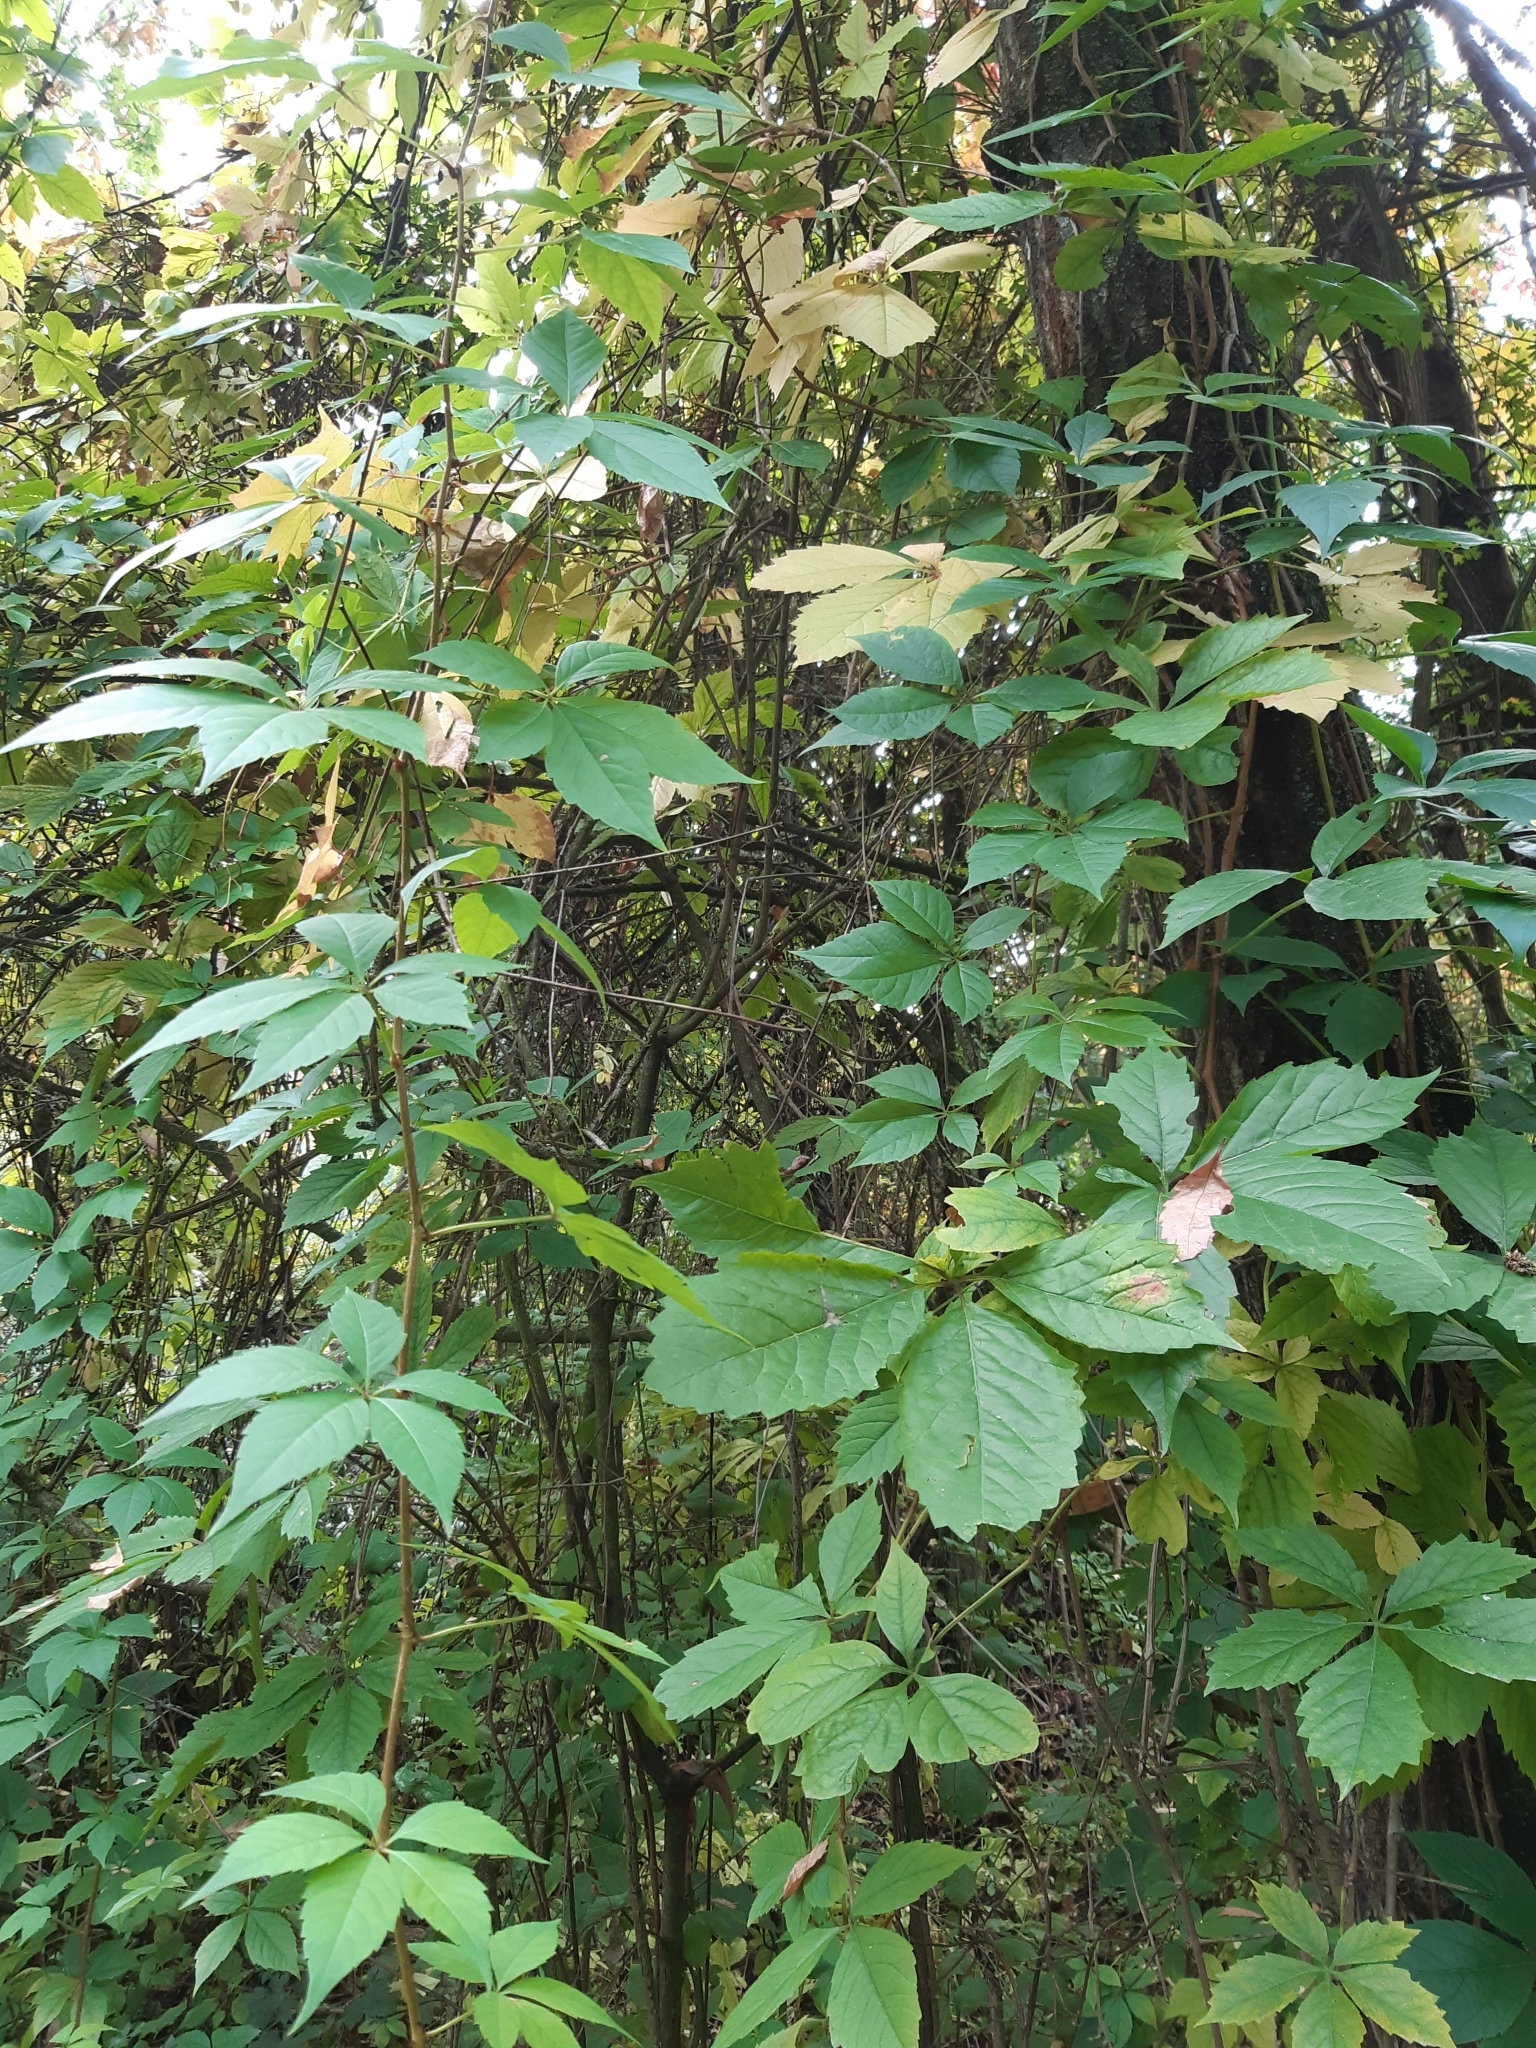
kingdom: Plantae
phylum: Tracheophyta
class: Magnoliopsida
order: Vitales
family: Vitaceae
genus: Parthenocissus
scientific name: Parthenocissus quinquefolia
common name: Virginia-creeper
